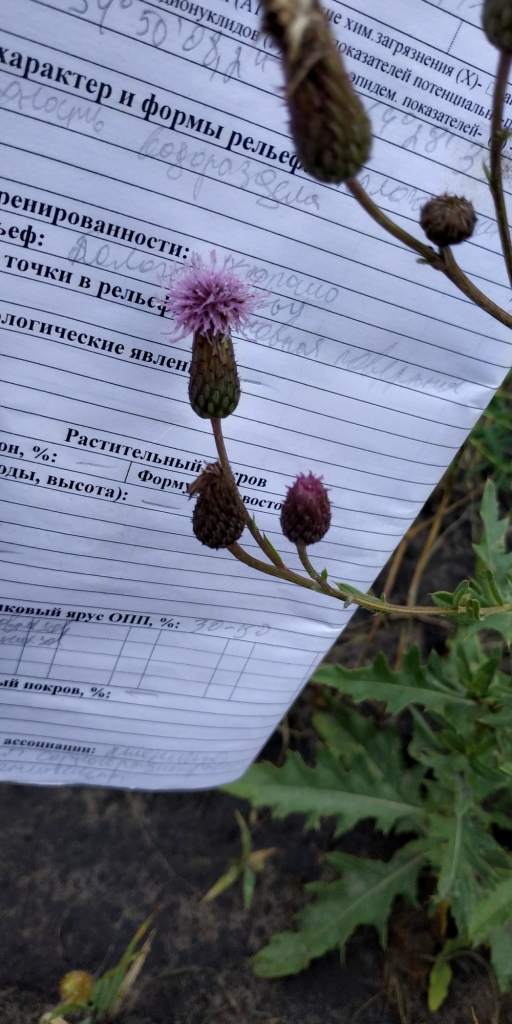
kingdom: Plantae
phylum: Tracheophyta
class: Magnoliopsida
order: Asterales
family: Asteraceae
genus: Cirsium
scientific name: Cirsium arvense
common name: Creeping thistle
